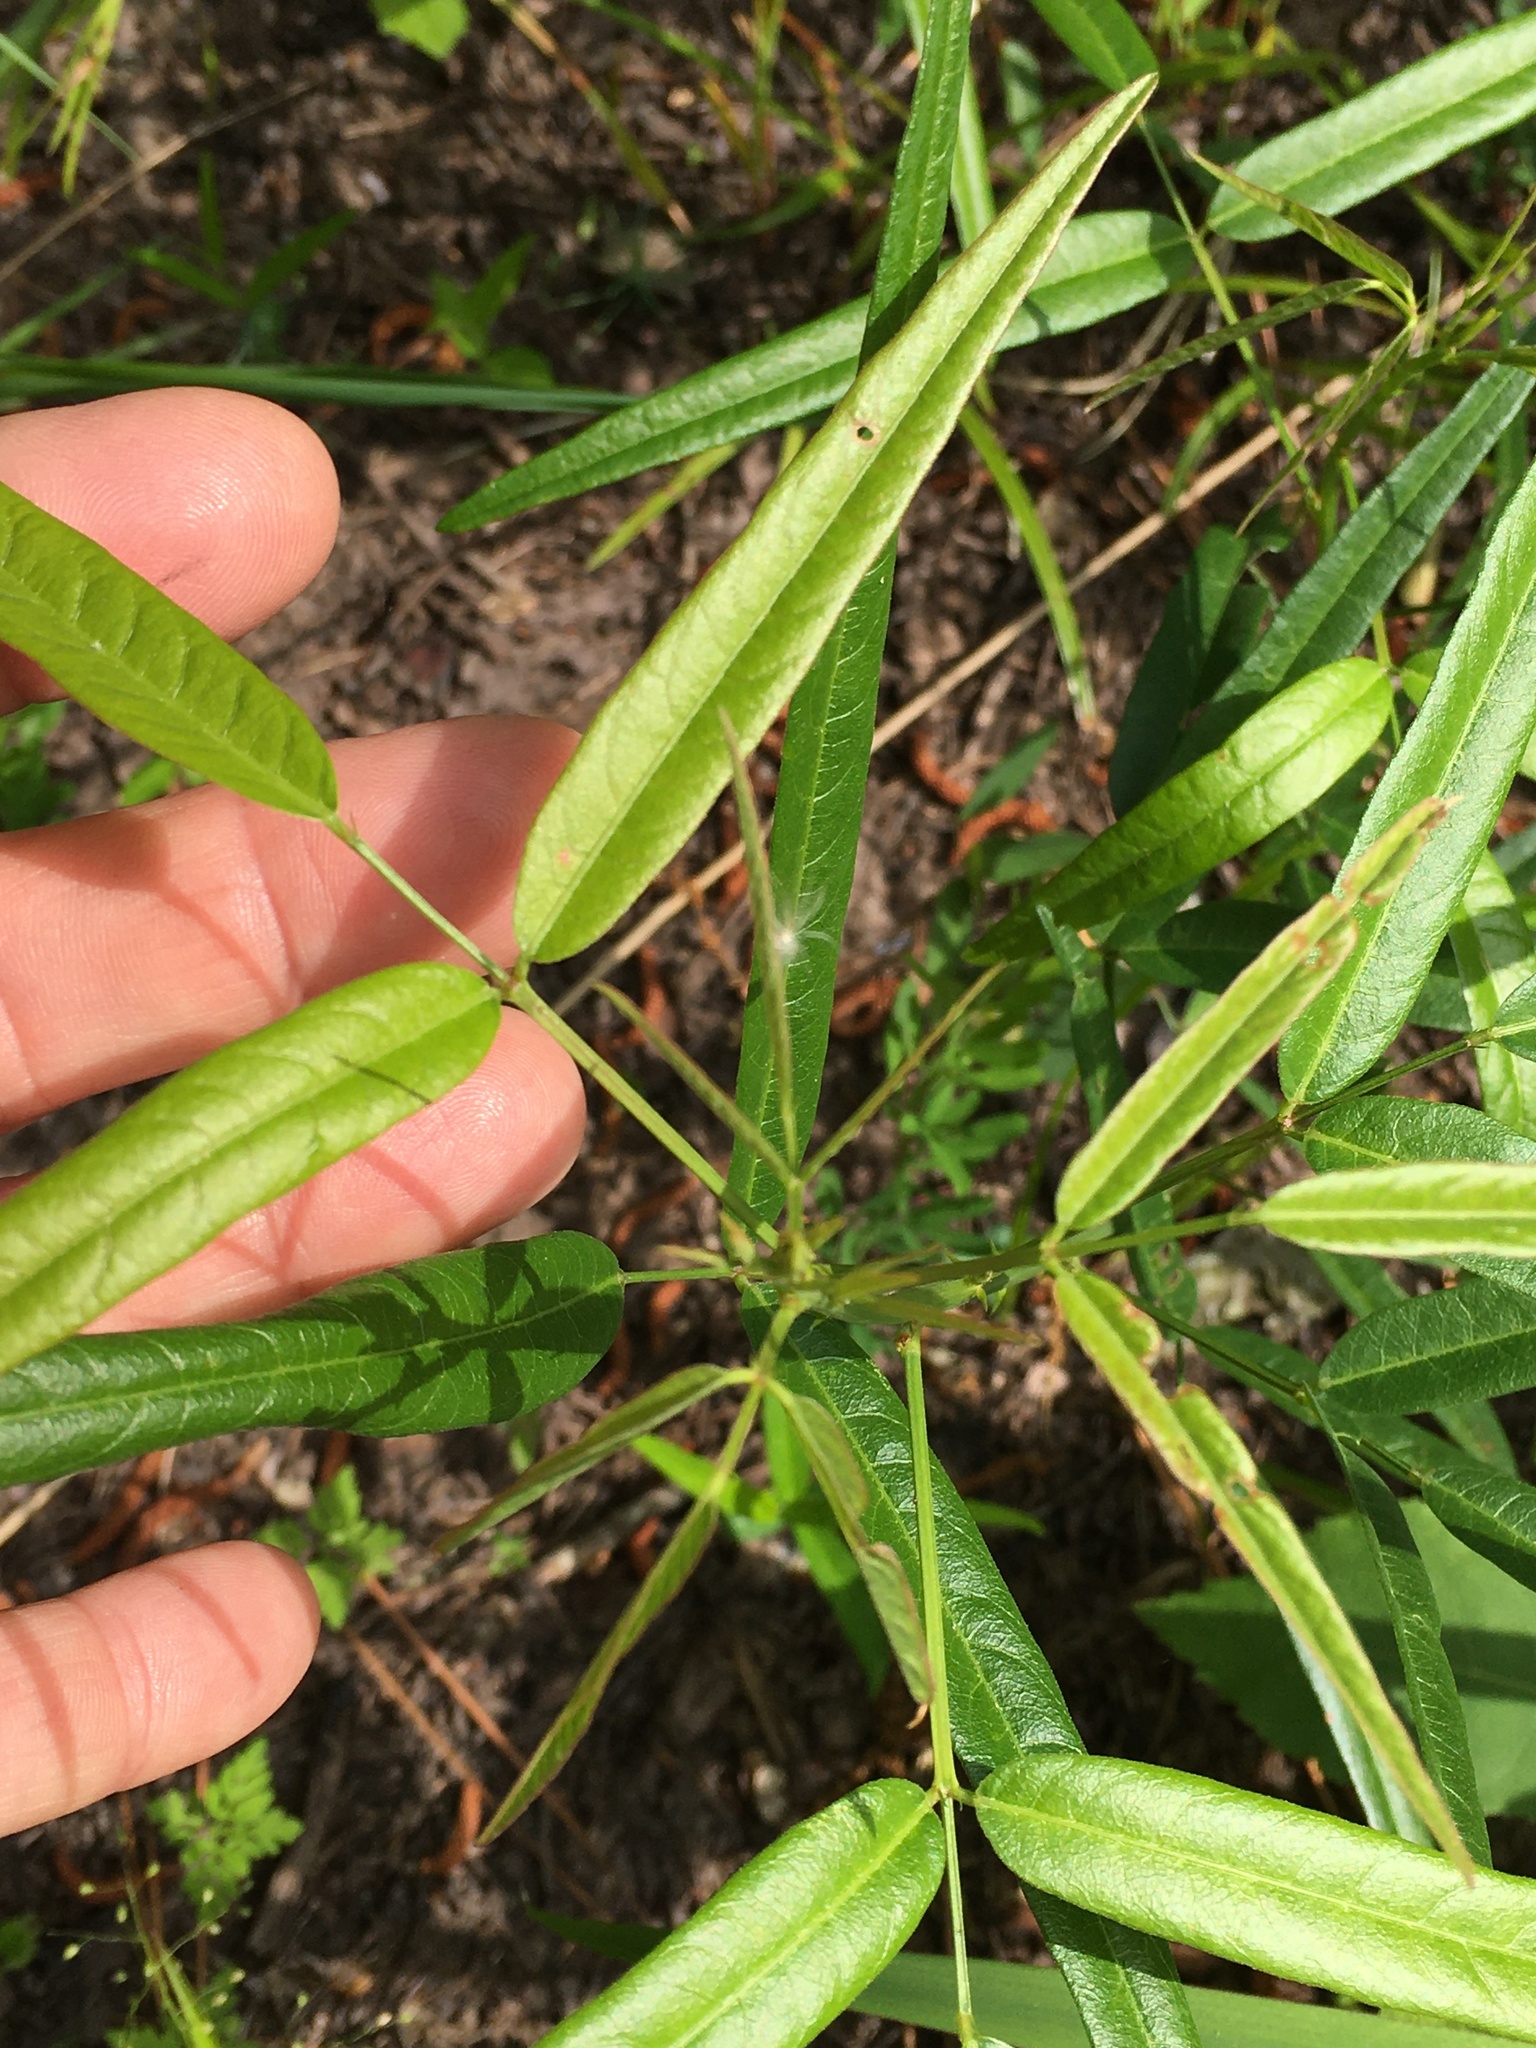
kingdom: Plantae
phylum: Tracheophyta
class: Magnoliopsida
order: Fabales
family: Fabaceae
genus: Desmodium
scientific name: Desmodium paniculatum
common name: Panicled tick-clover
